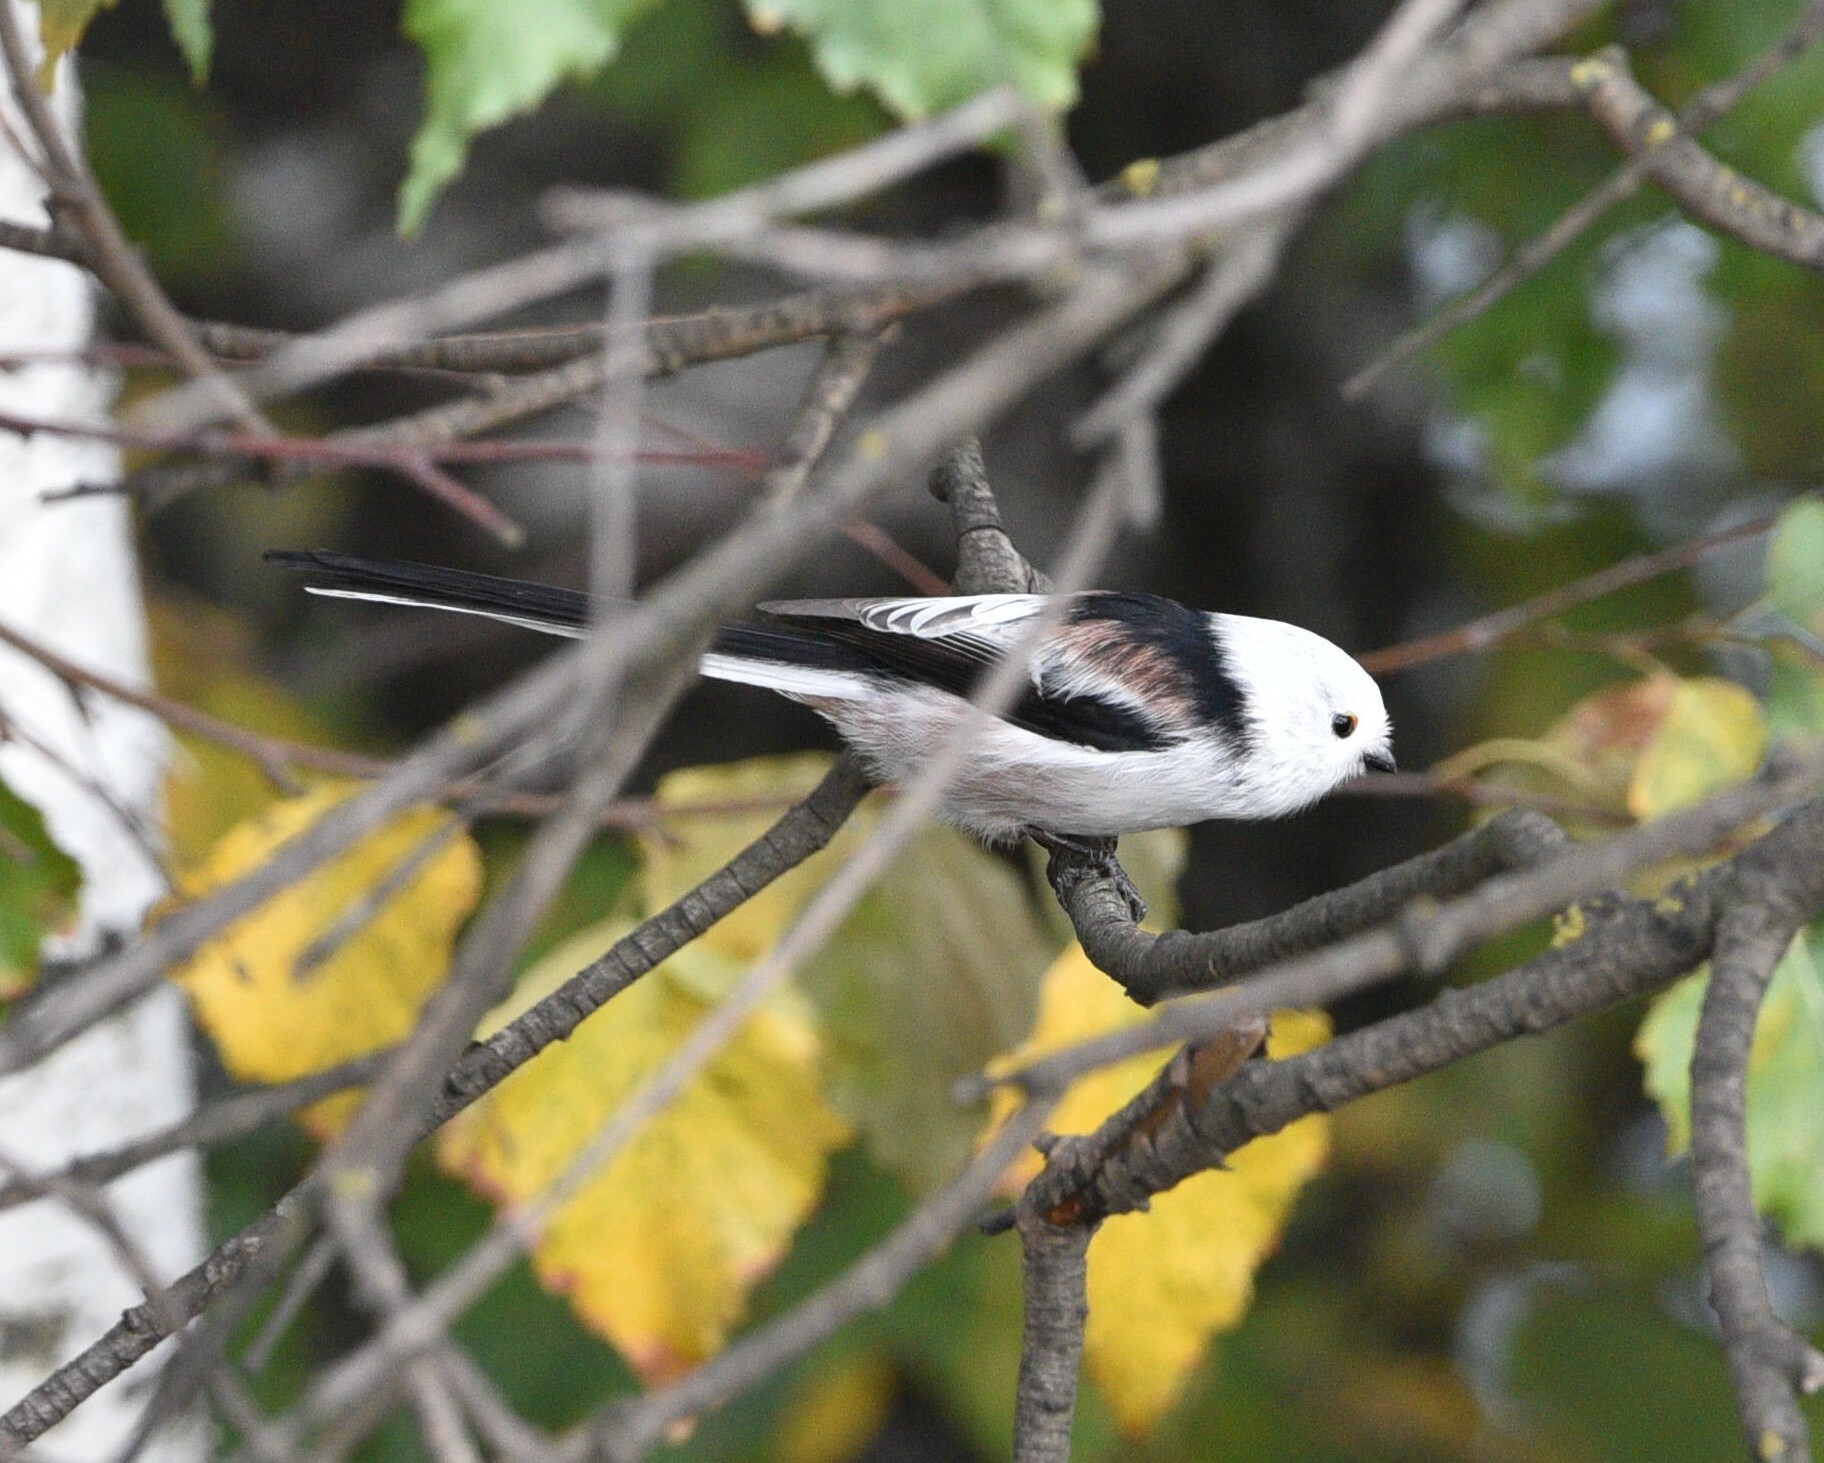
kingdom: Animalia
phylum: Chordata
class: Aves
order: Passeriformes
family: Aegithalidae
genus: Aegithalos
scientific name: Aegithalos caudatus
